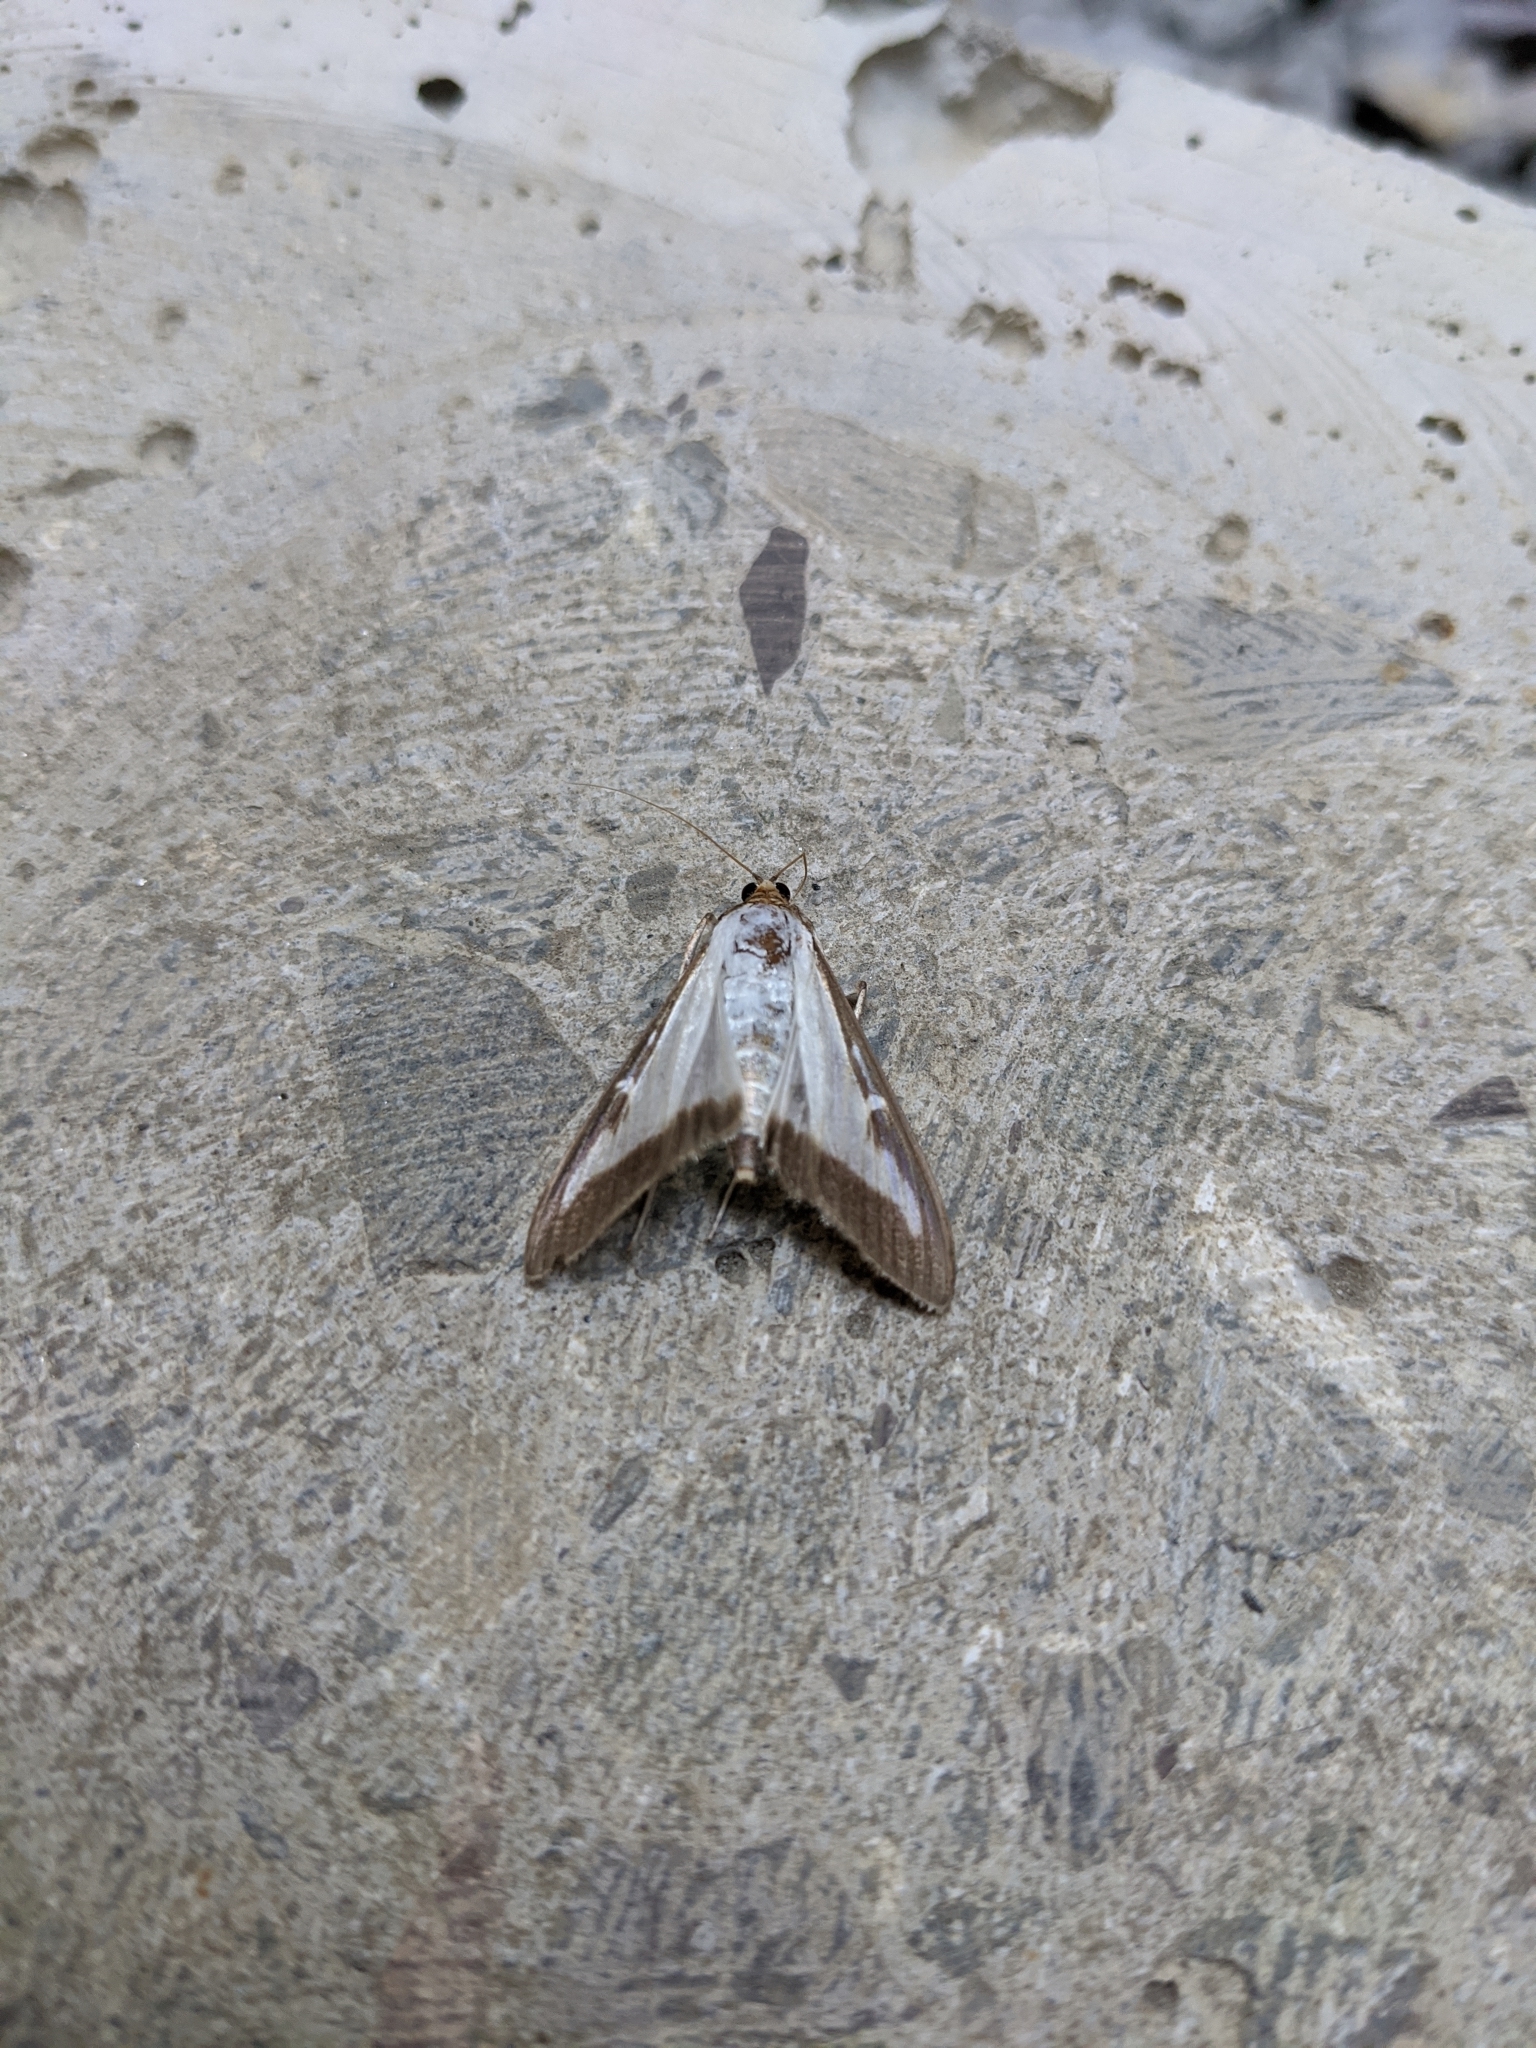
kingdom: Animalia
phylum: Arthropoda
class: Insecta
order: Lepidoptera
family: Crambidae
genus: Cydalima
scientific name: Cydalima perspectalis
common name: Box tree moth
